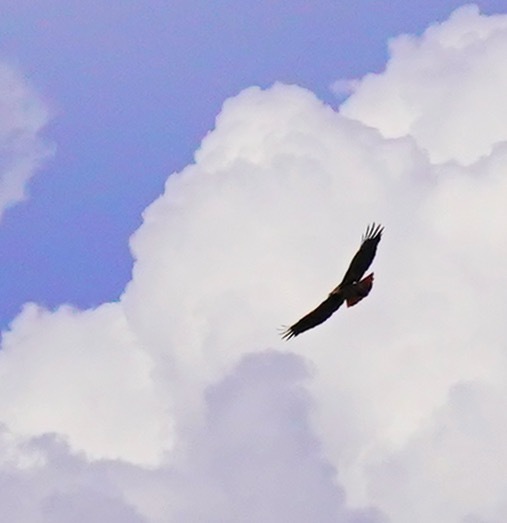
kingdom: Animalia
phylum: Chordata
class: Aves
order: Accipitriformes
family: Accipitridae
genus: Buteo
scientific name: Buteo jamaicensis
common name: Red-tailed hawk
